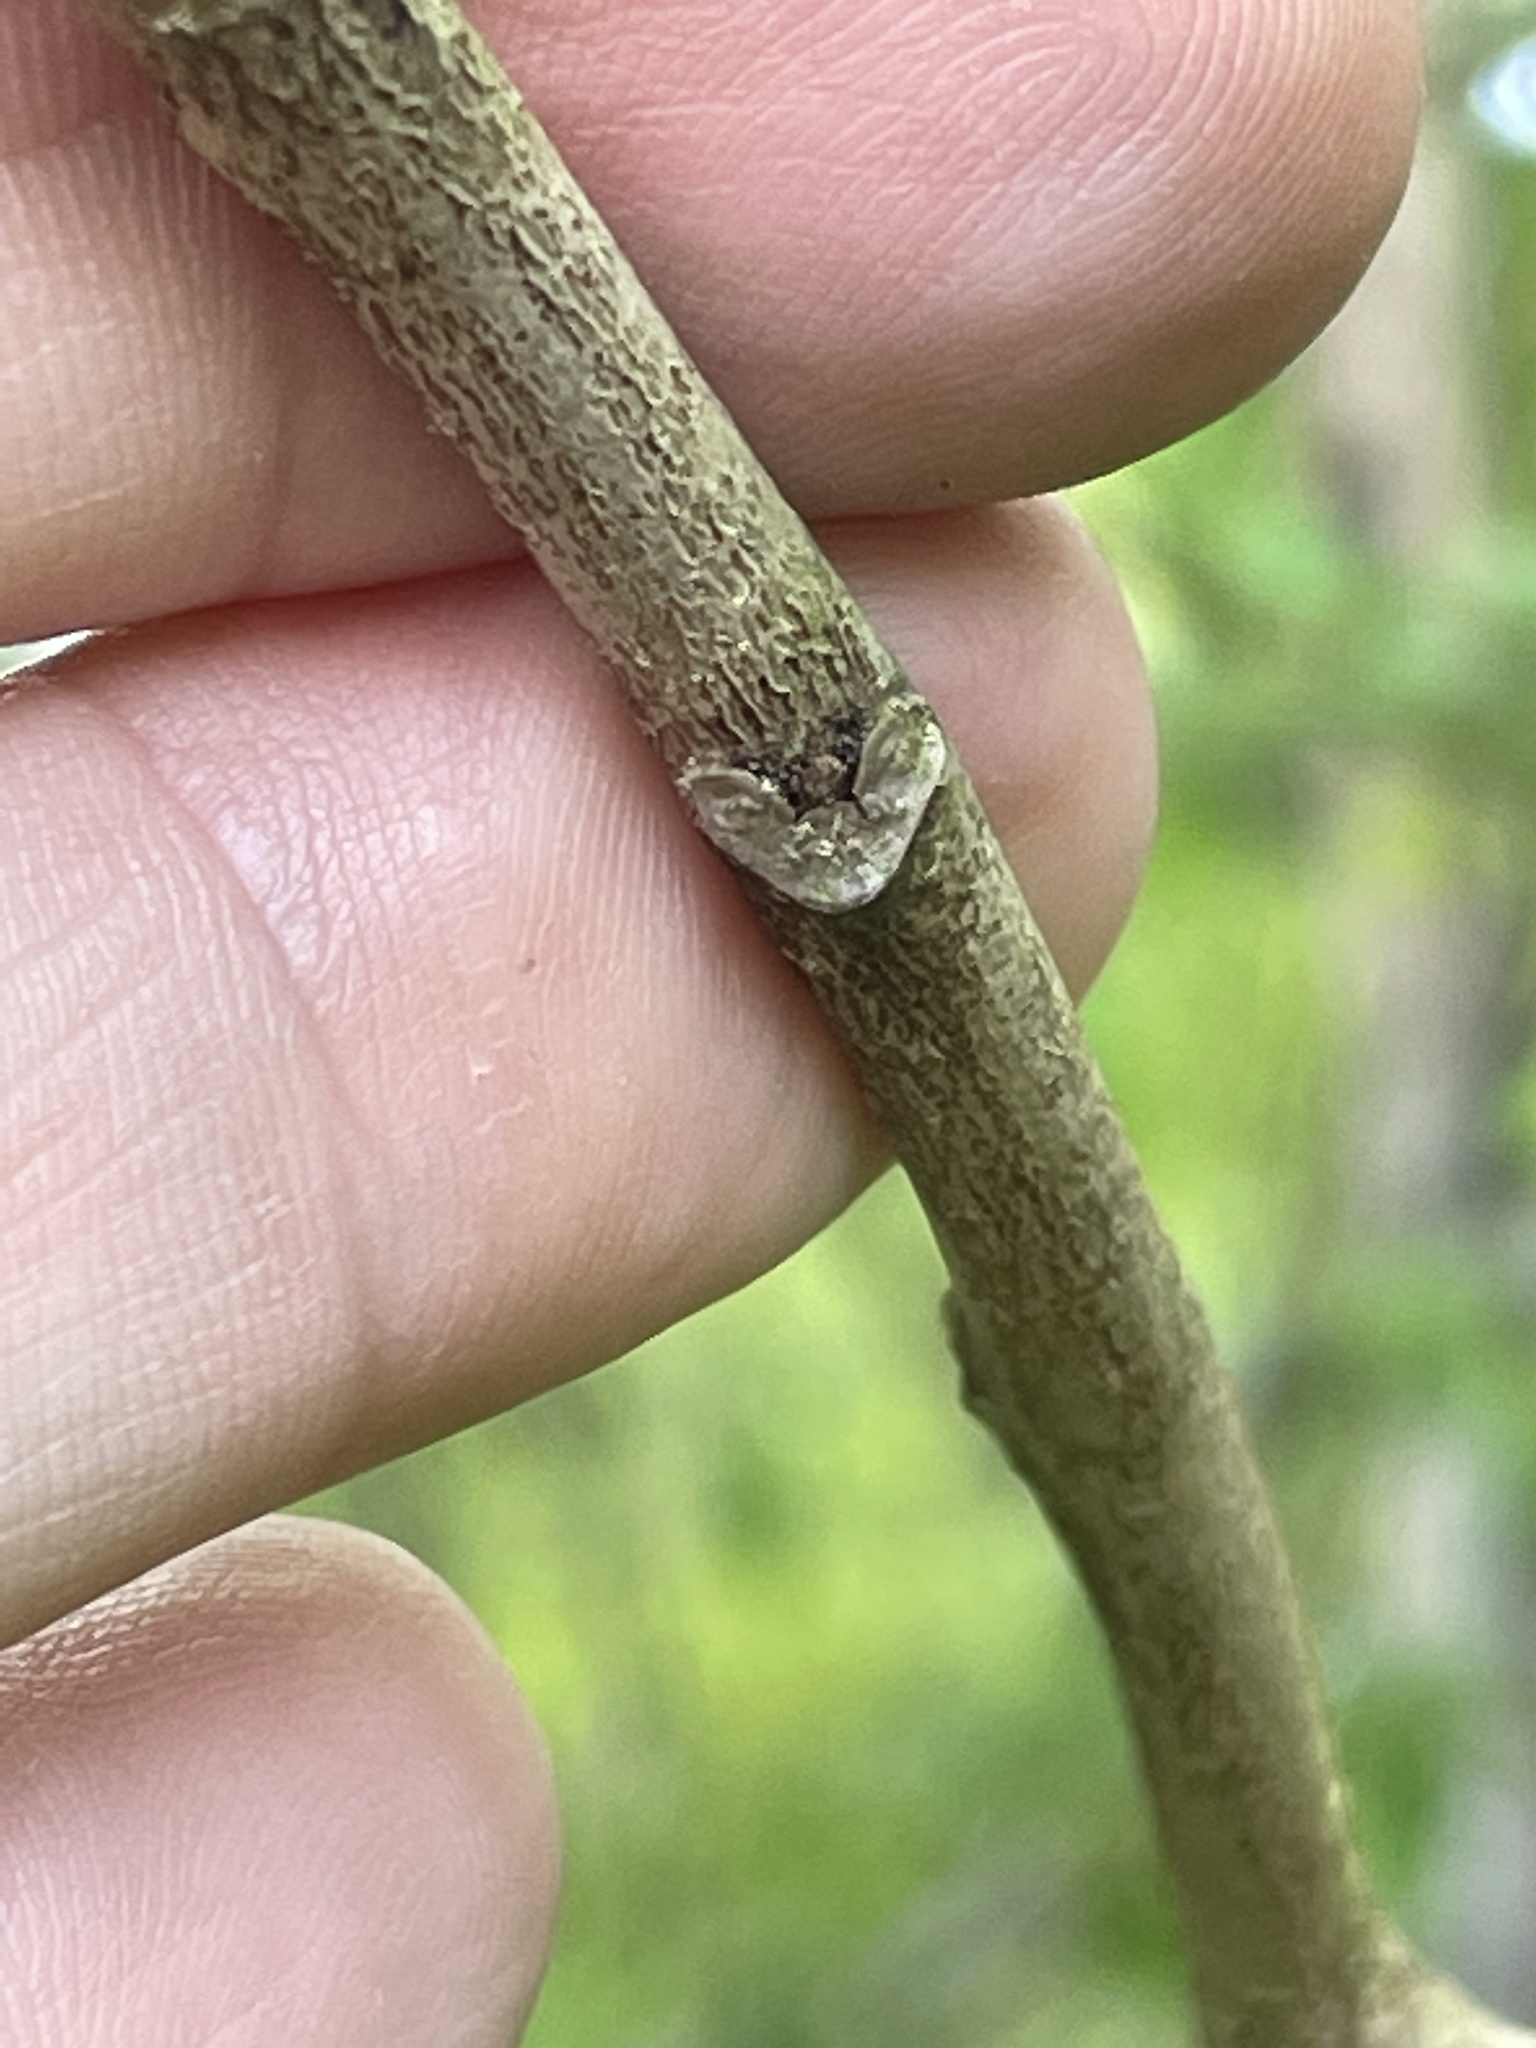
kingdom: Plantae
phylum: Tracheophyta
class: Magnoliopsida
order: Magnoliales
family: Annonaceae
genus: Asimina
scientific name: Asimina triloba
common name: Dog-banana
